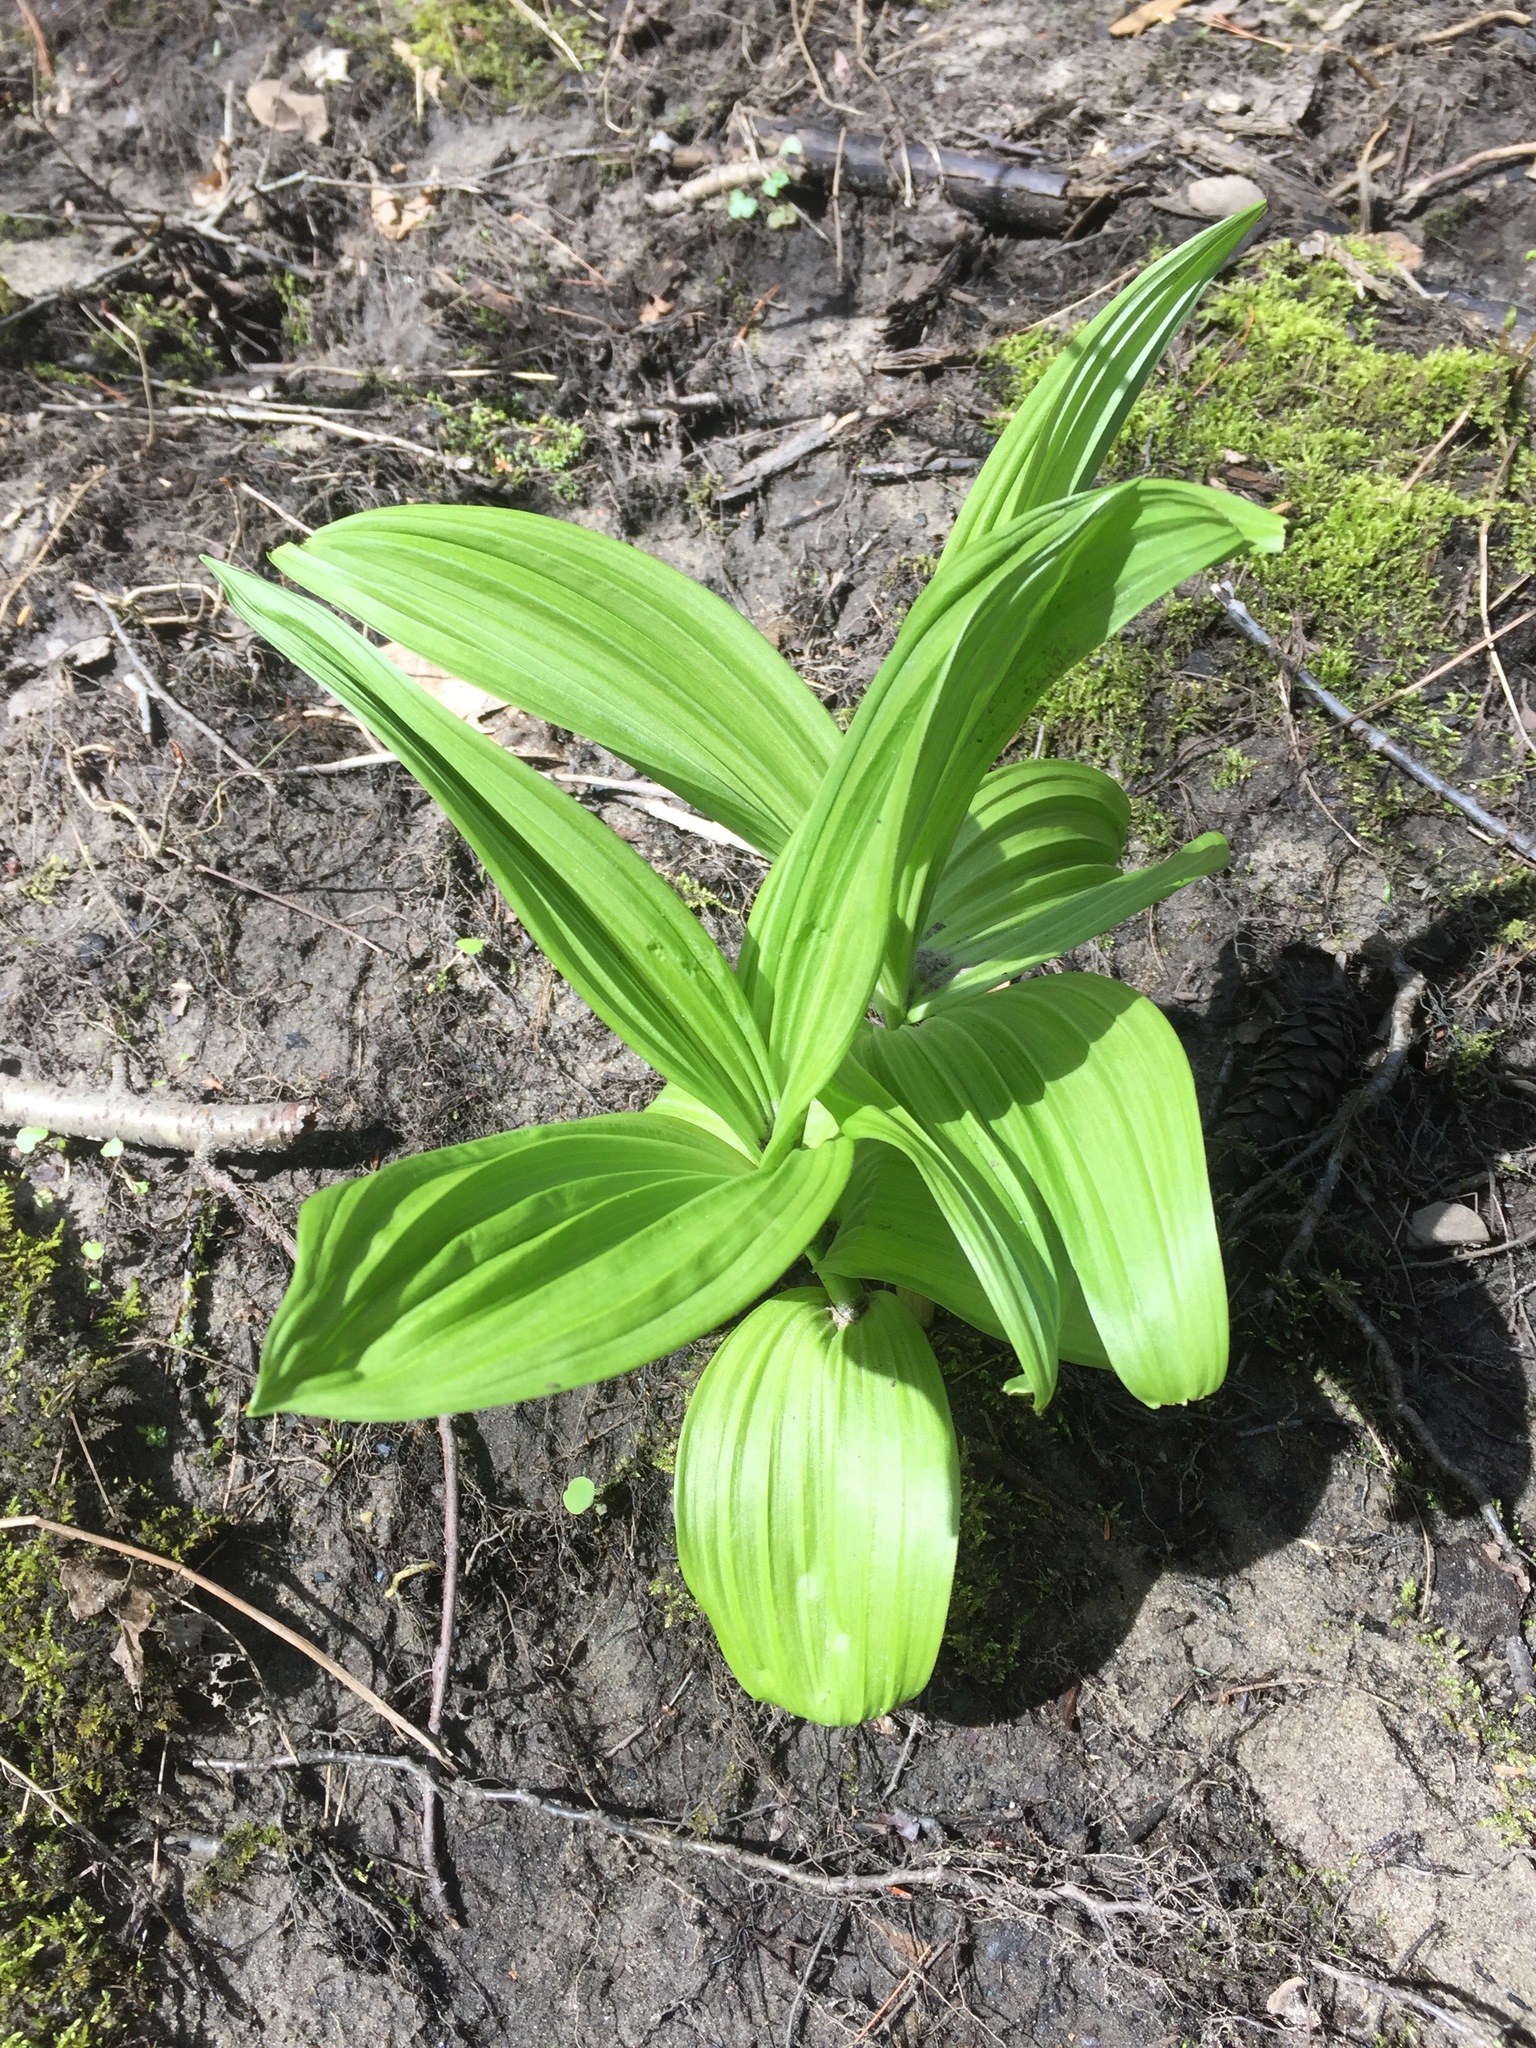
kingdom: Plantae
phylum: Tracheophyta
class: Liliopsida
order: Liliales
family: Melanthiaceae
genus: Veratrum
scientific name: Veratrum viride
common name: American false hellebore
